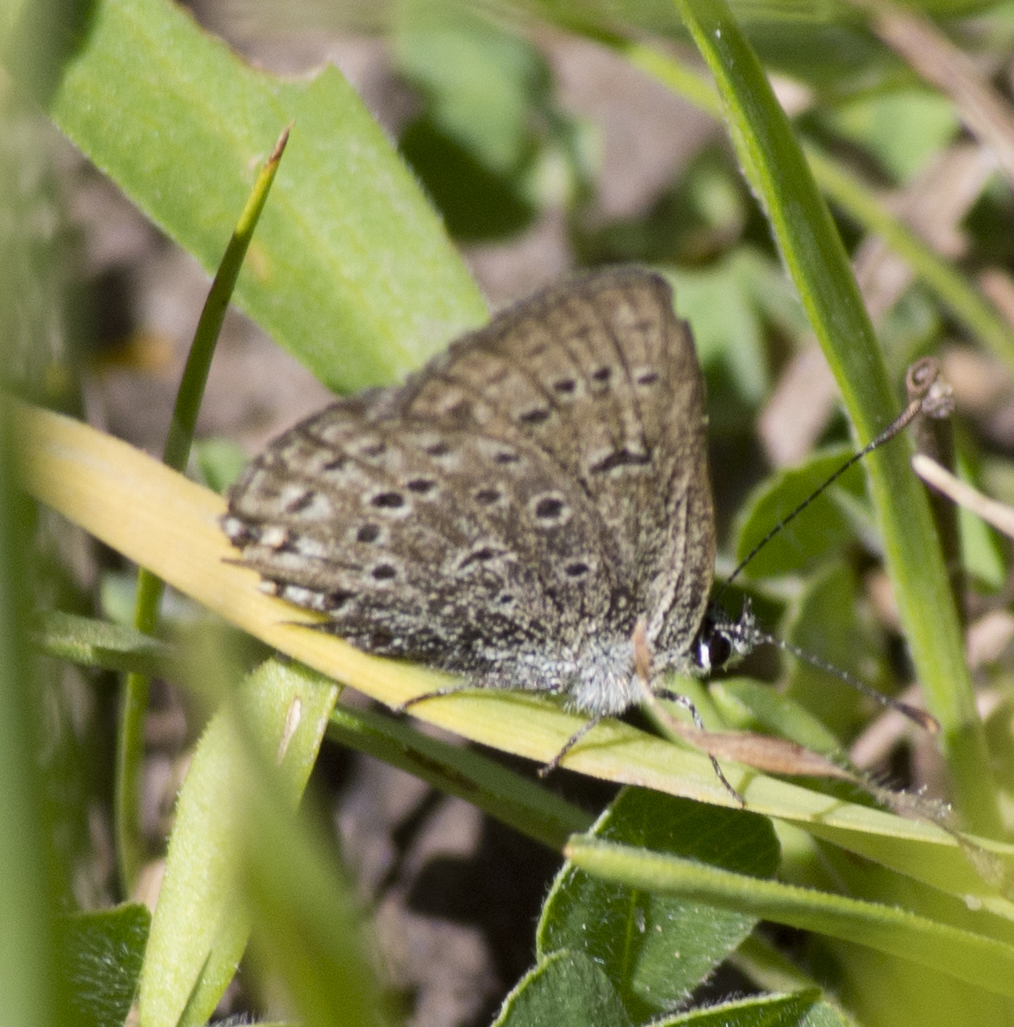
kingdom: Animalia
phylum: Arthropoda
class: Insecta
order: Lepidoptera
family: Lycaenidae
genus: Icaricia
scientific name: Icaricia saepiolus
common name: Greenish blue
